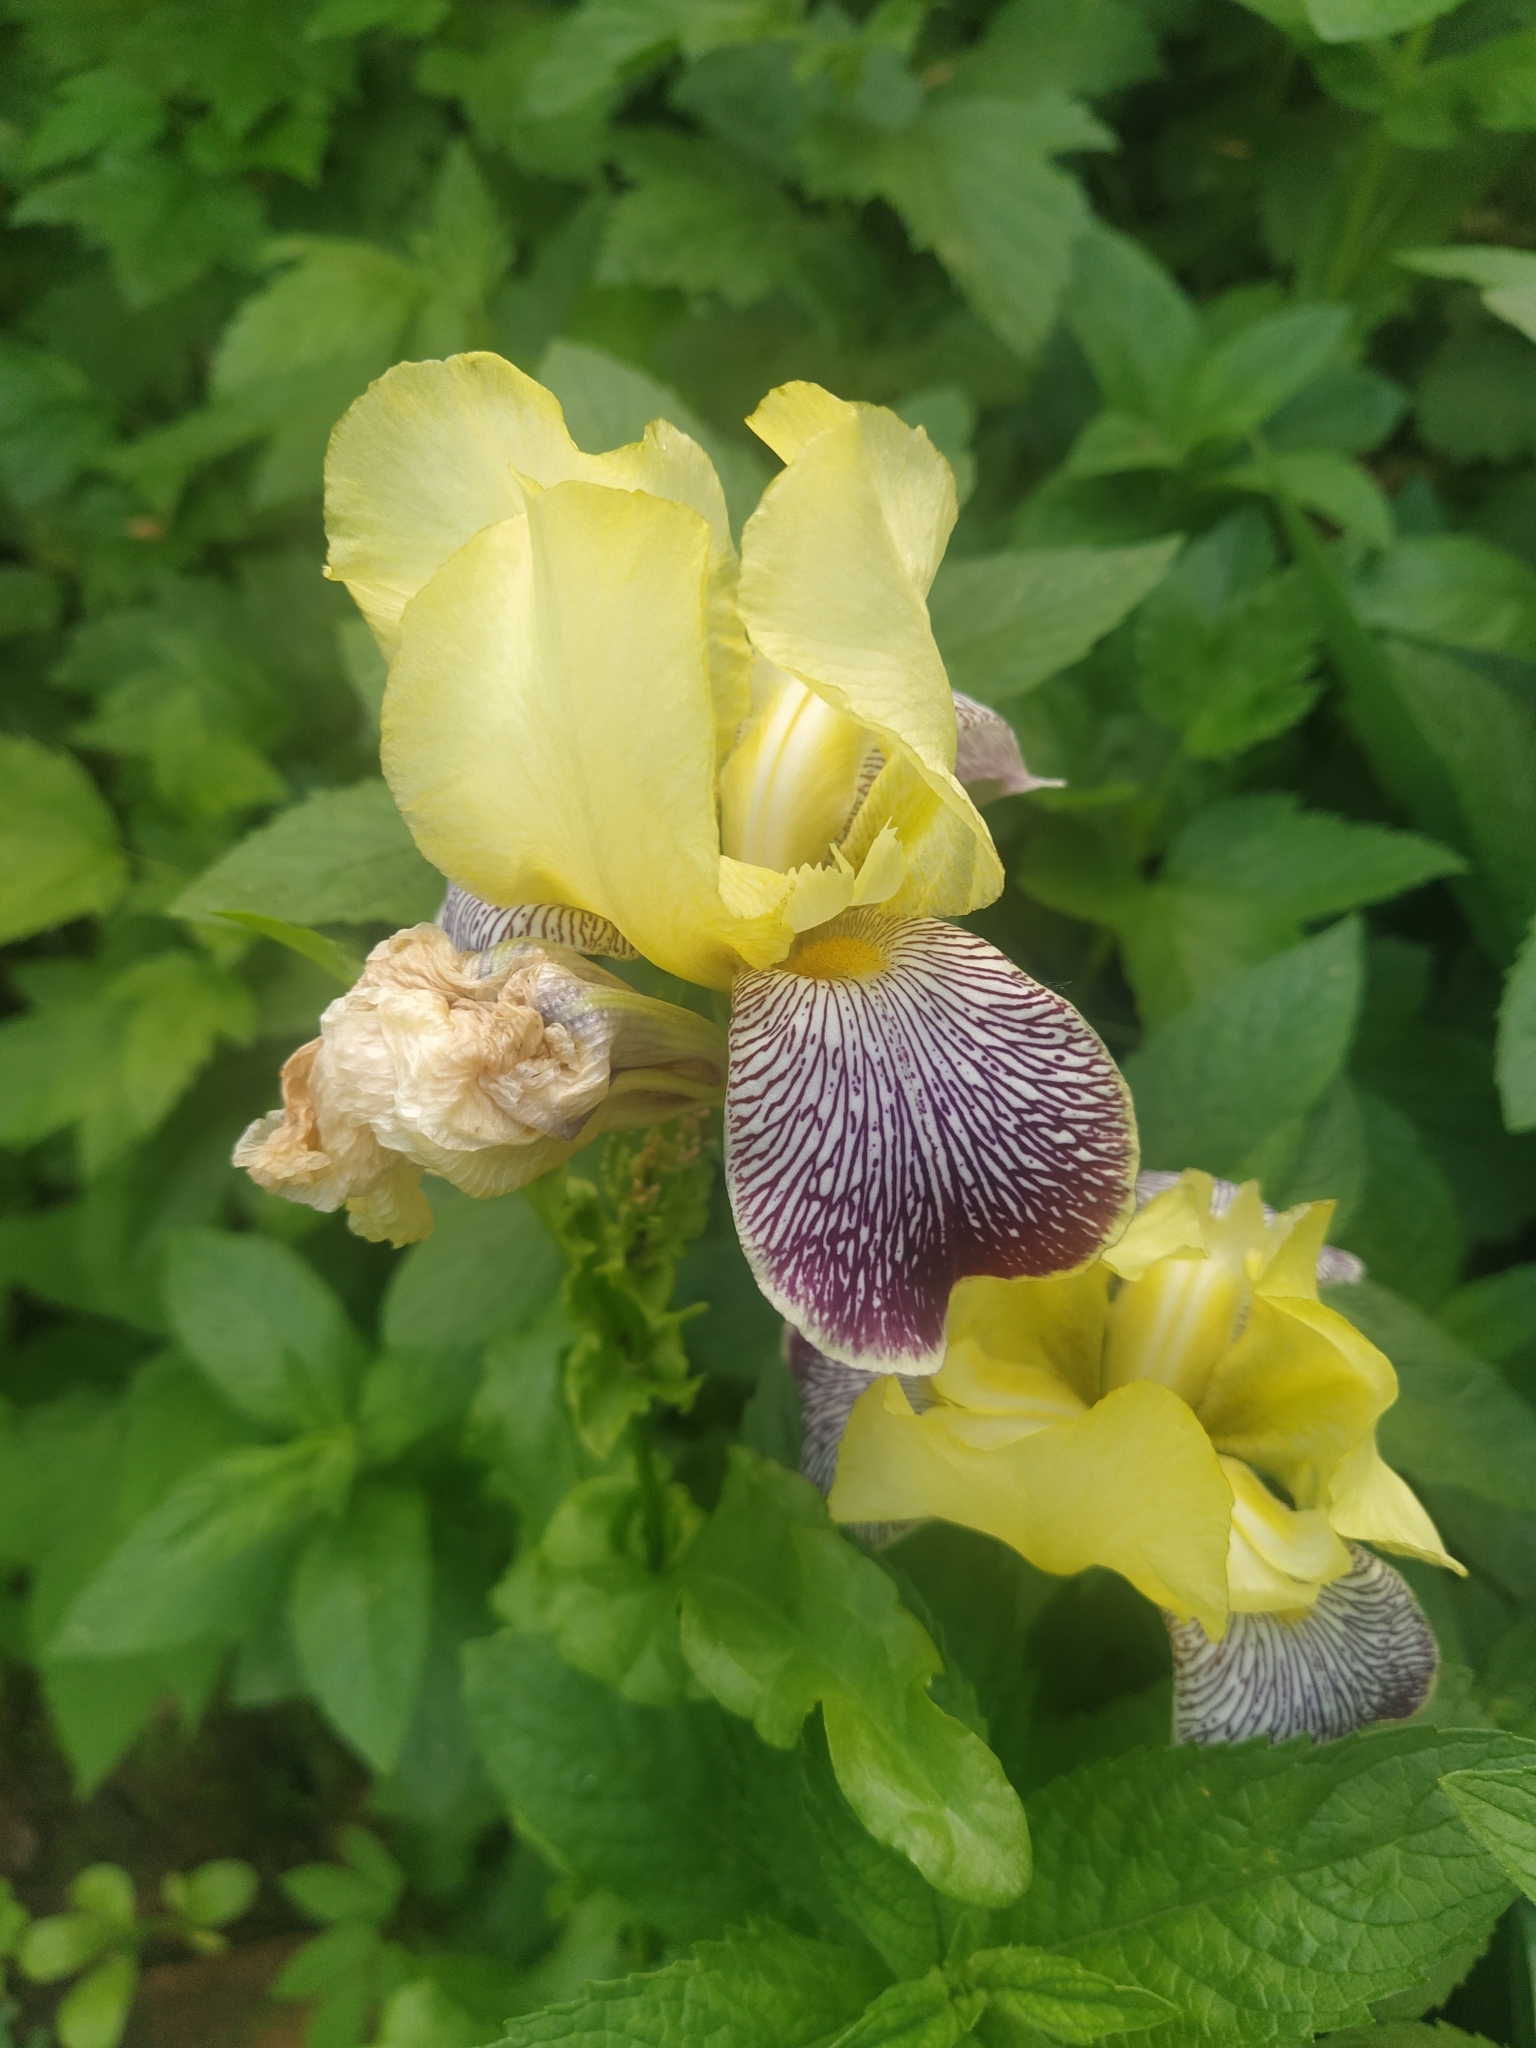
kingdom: Plantae
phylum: Tracheophyta
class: Liliopsida
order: Asparagales
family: Iridaceae
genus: Iris
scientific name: Iris hybrida
